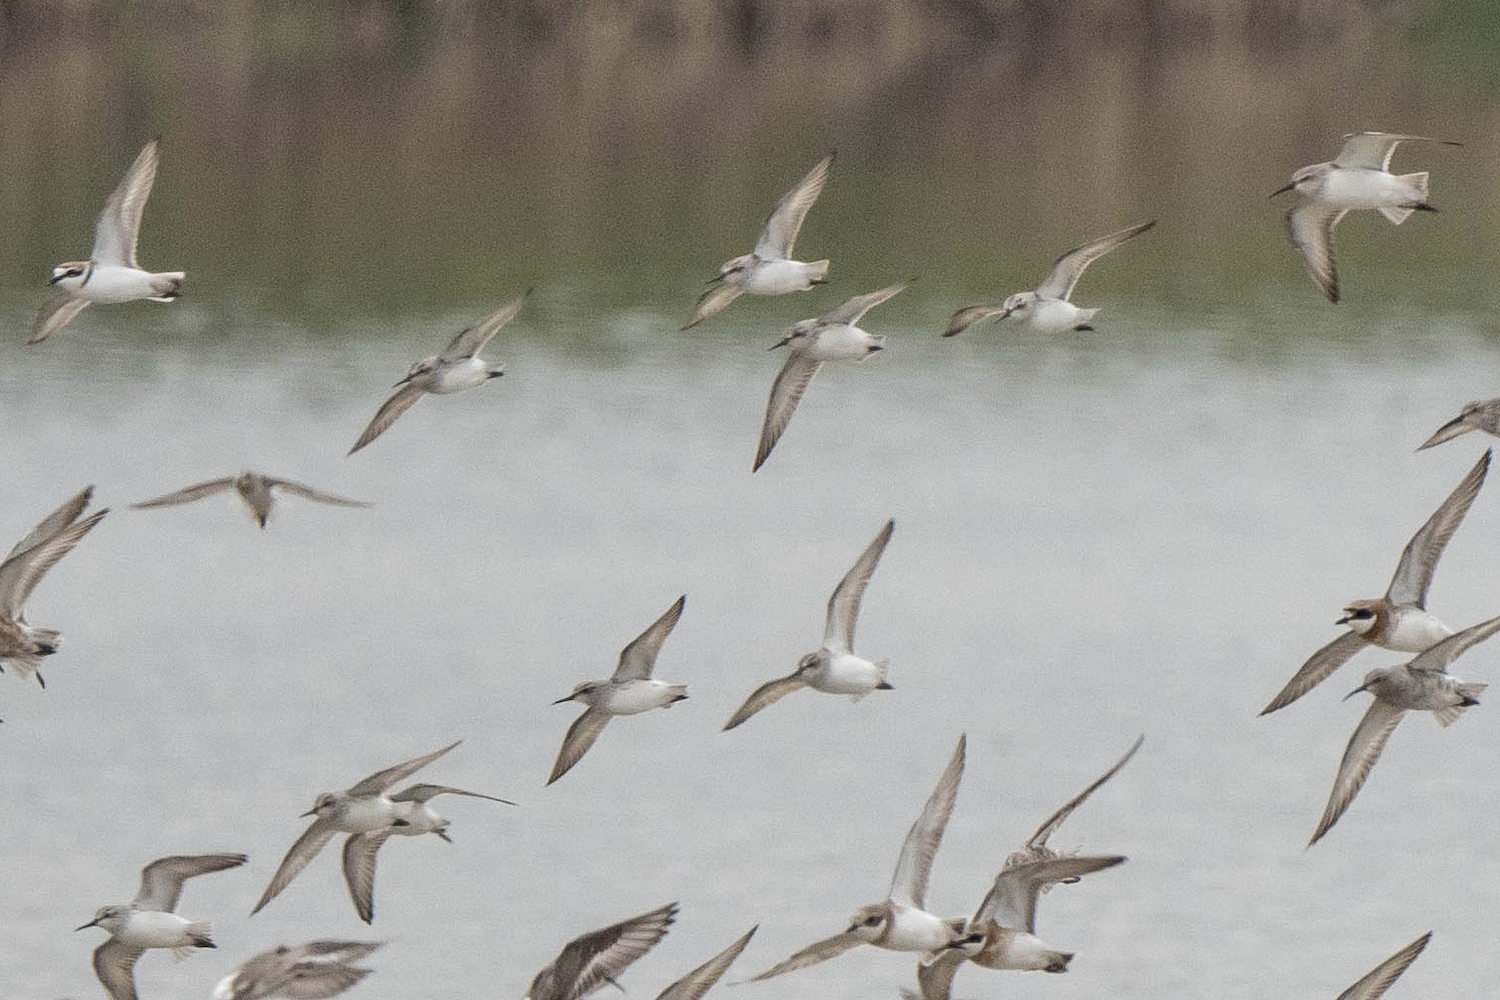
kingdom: Animalia
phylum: Chordata
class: Aves
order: Charadriiformes
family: Scolopacidae
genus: Calidris
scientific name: Calidris falcinellus
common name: Broad-billed sandpiper
